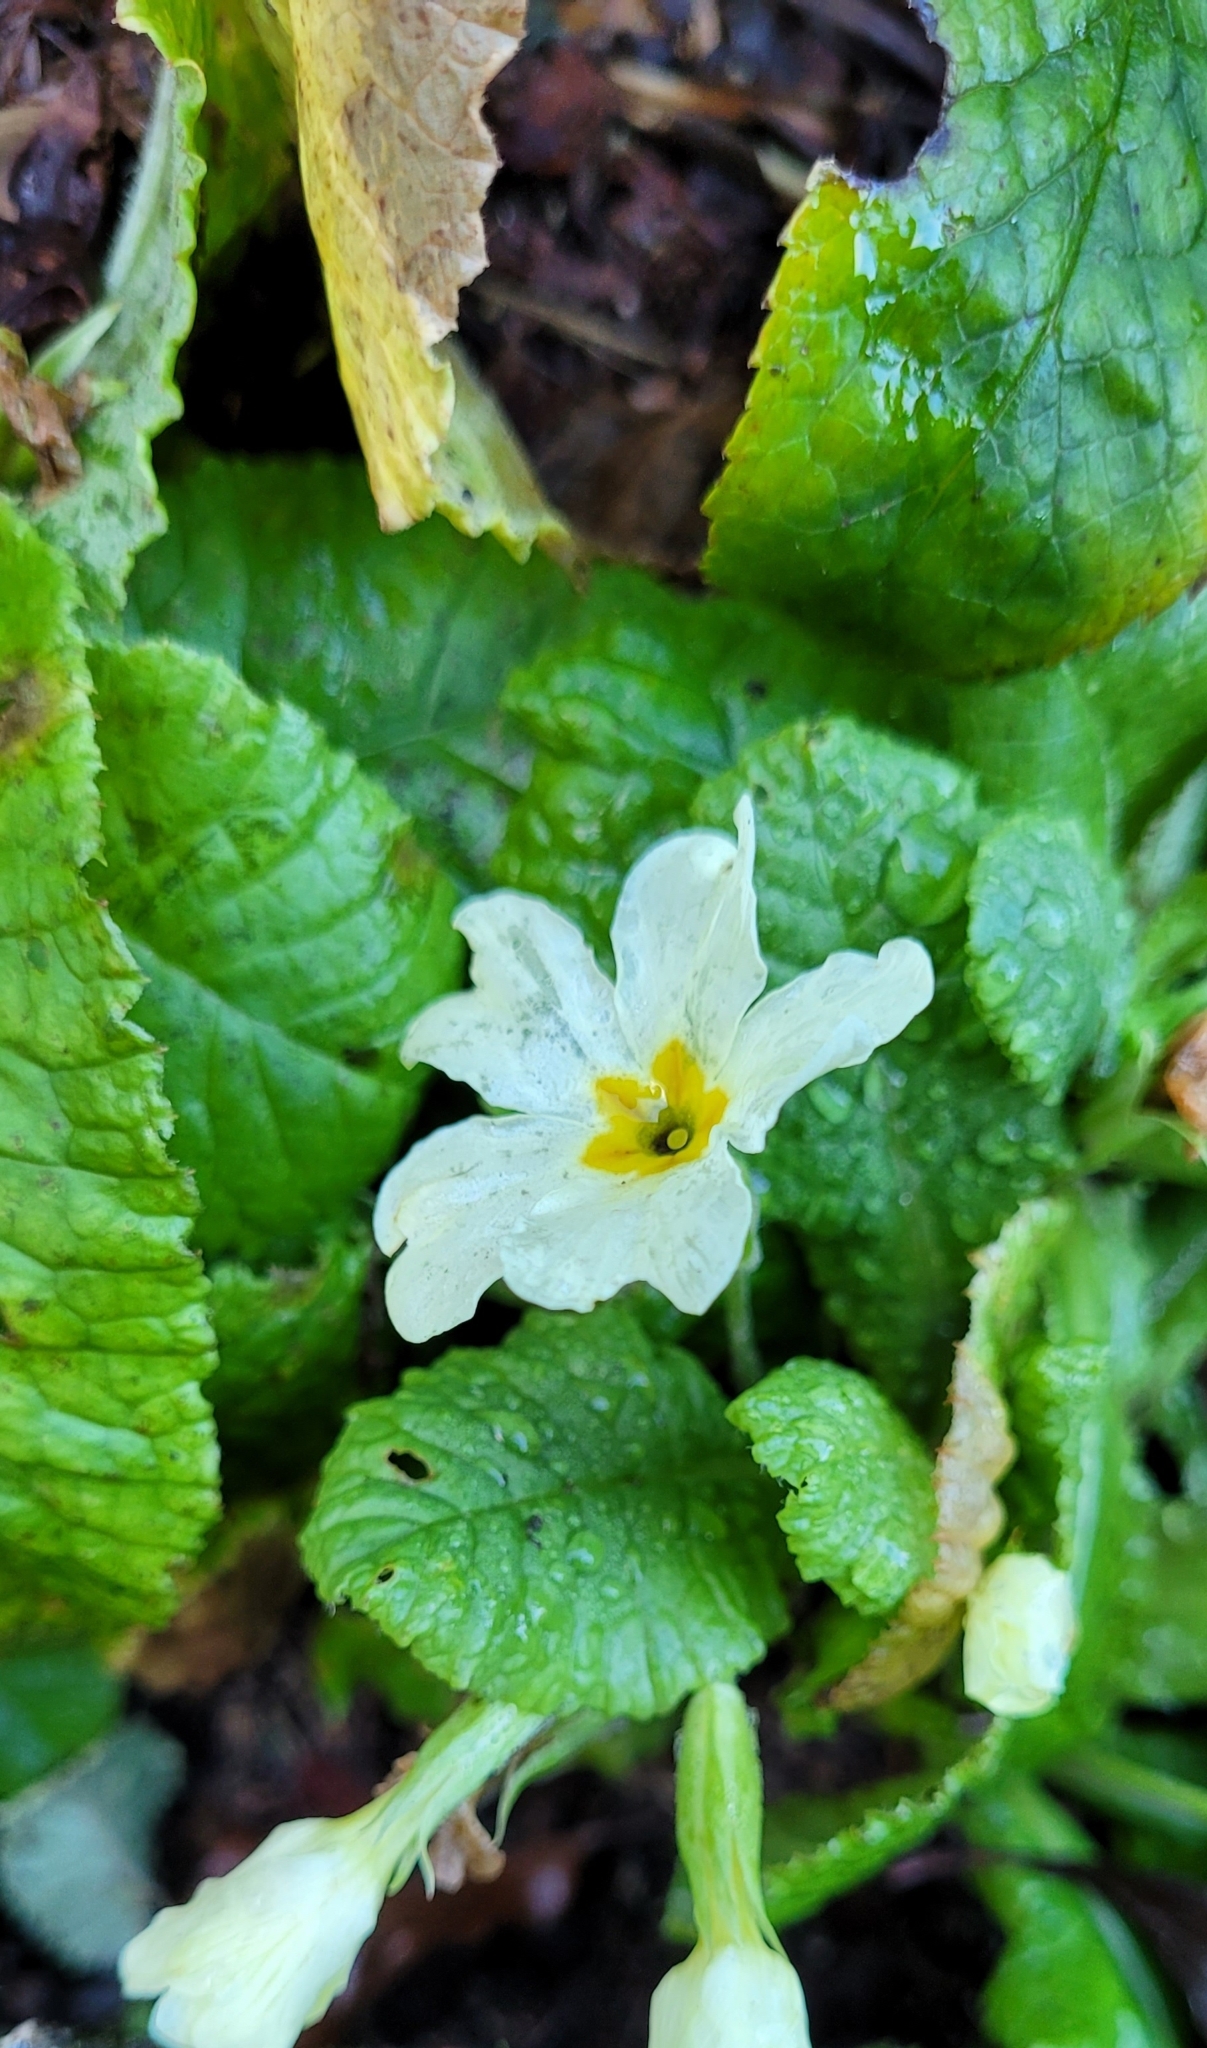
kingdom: Plantae
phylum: Tracheophyta
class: Magnoliopsida
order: Ericales
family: Primulaceae
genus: Primula
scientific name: Primula vulgaris
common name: Primrose
